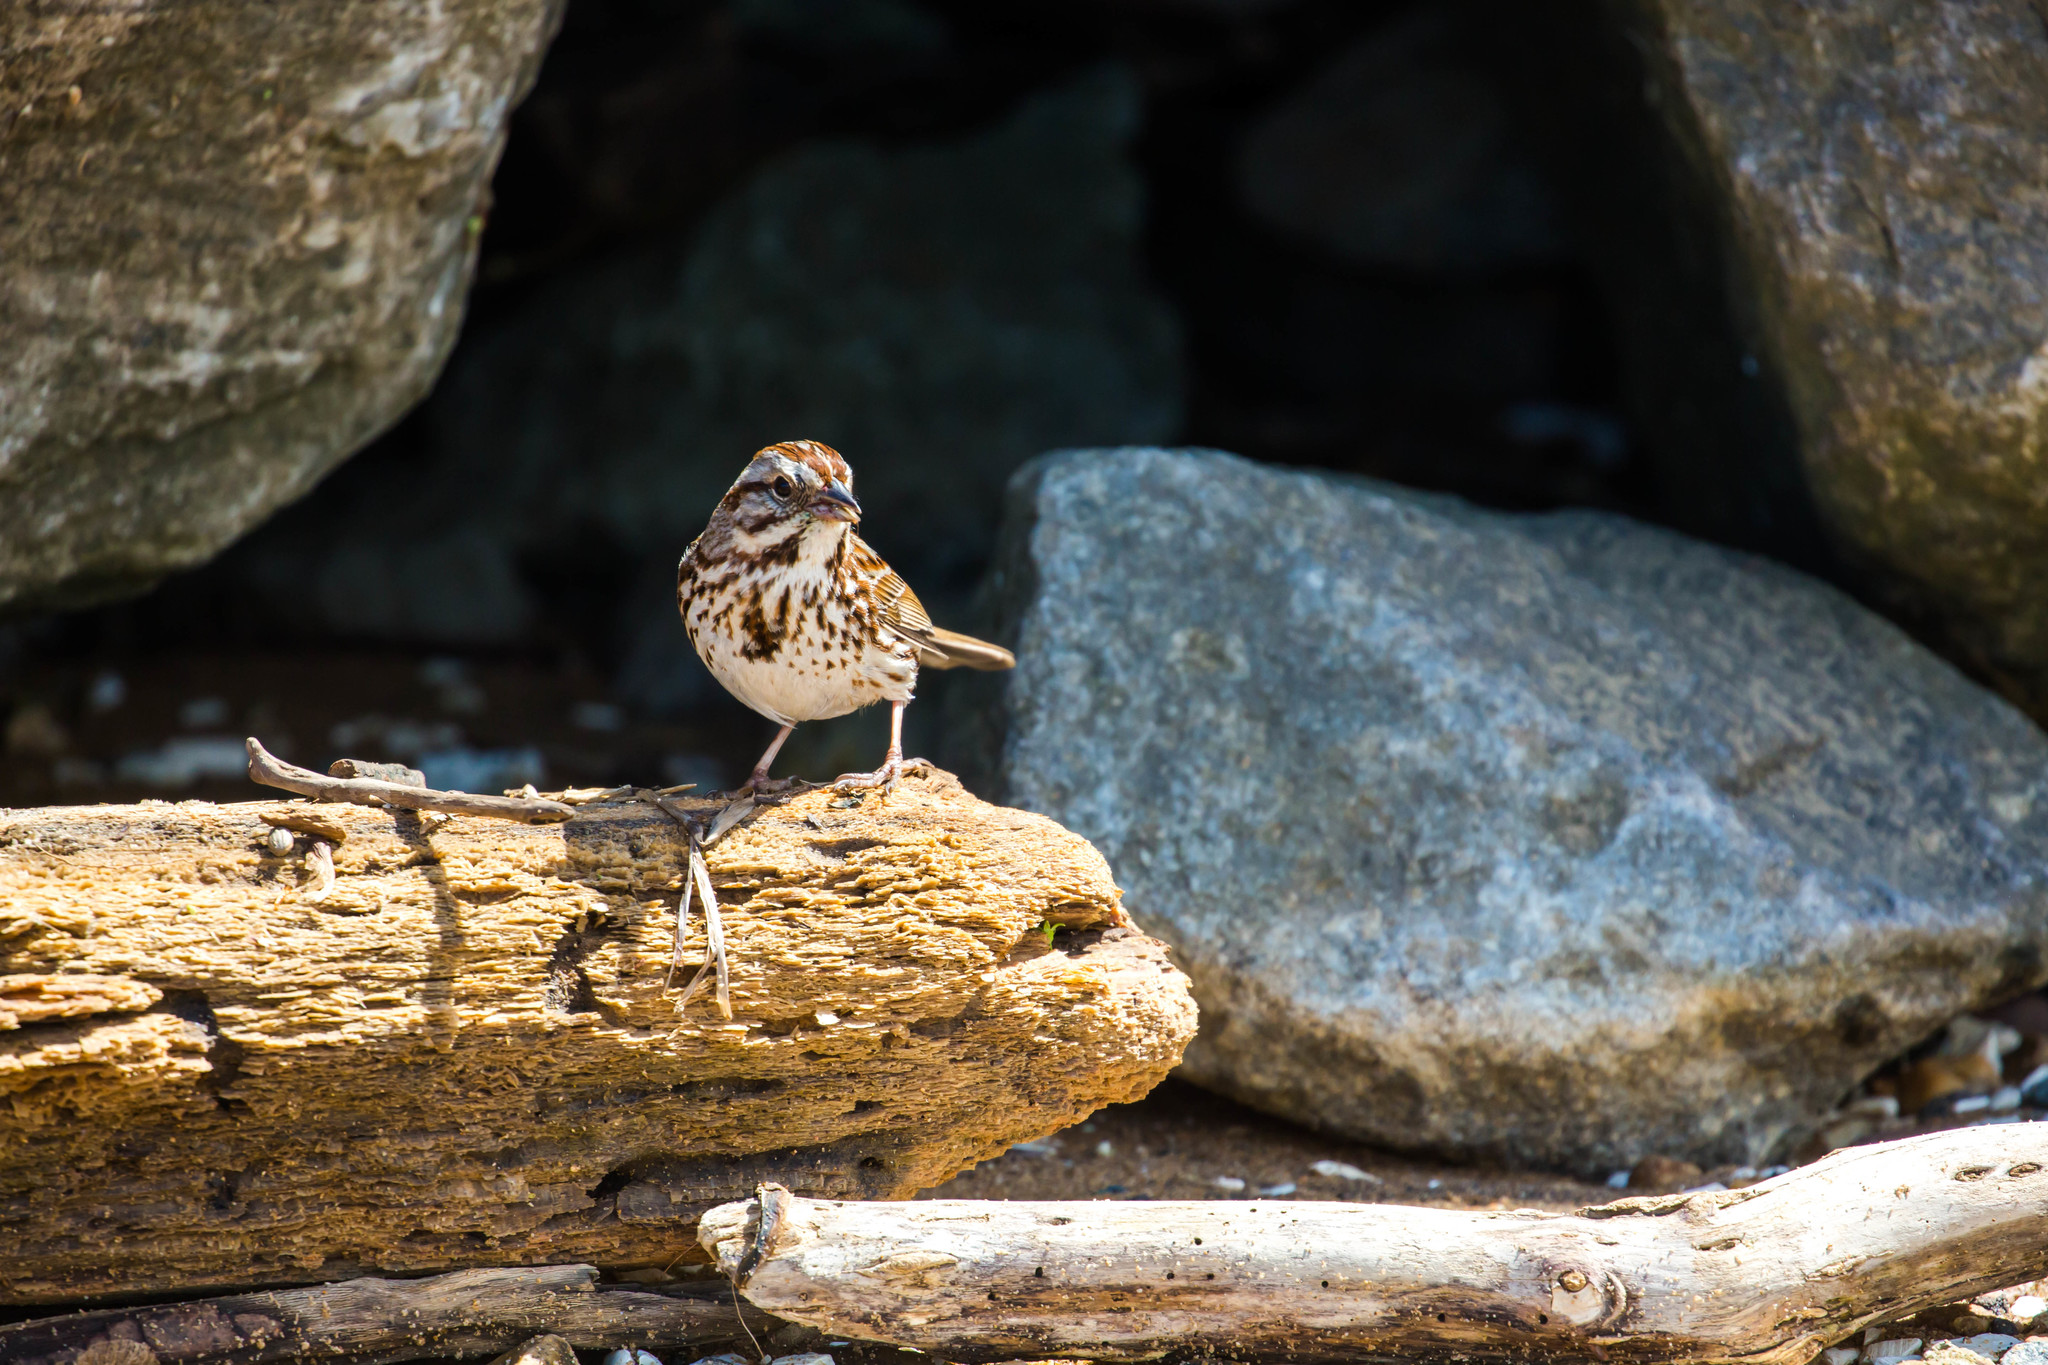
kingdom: Animalia
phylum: Chordata
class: Aves
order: Passeriformes
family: Passerellidae
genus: Melospiza
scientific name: Melospiza melodia
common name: Song sparrow
